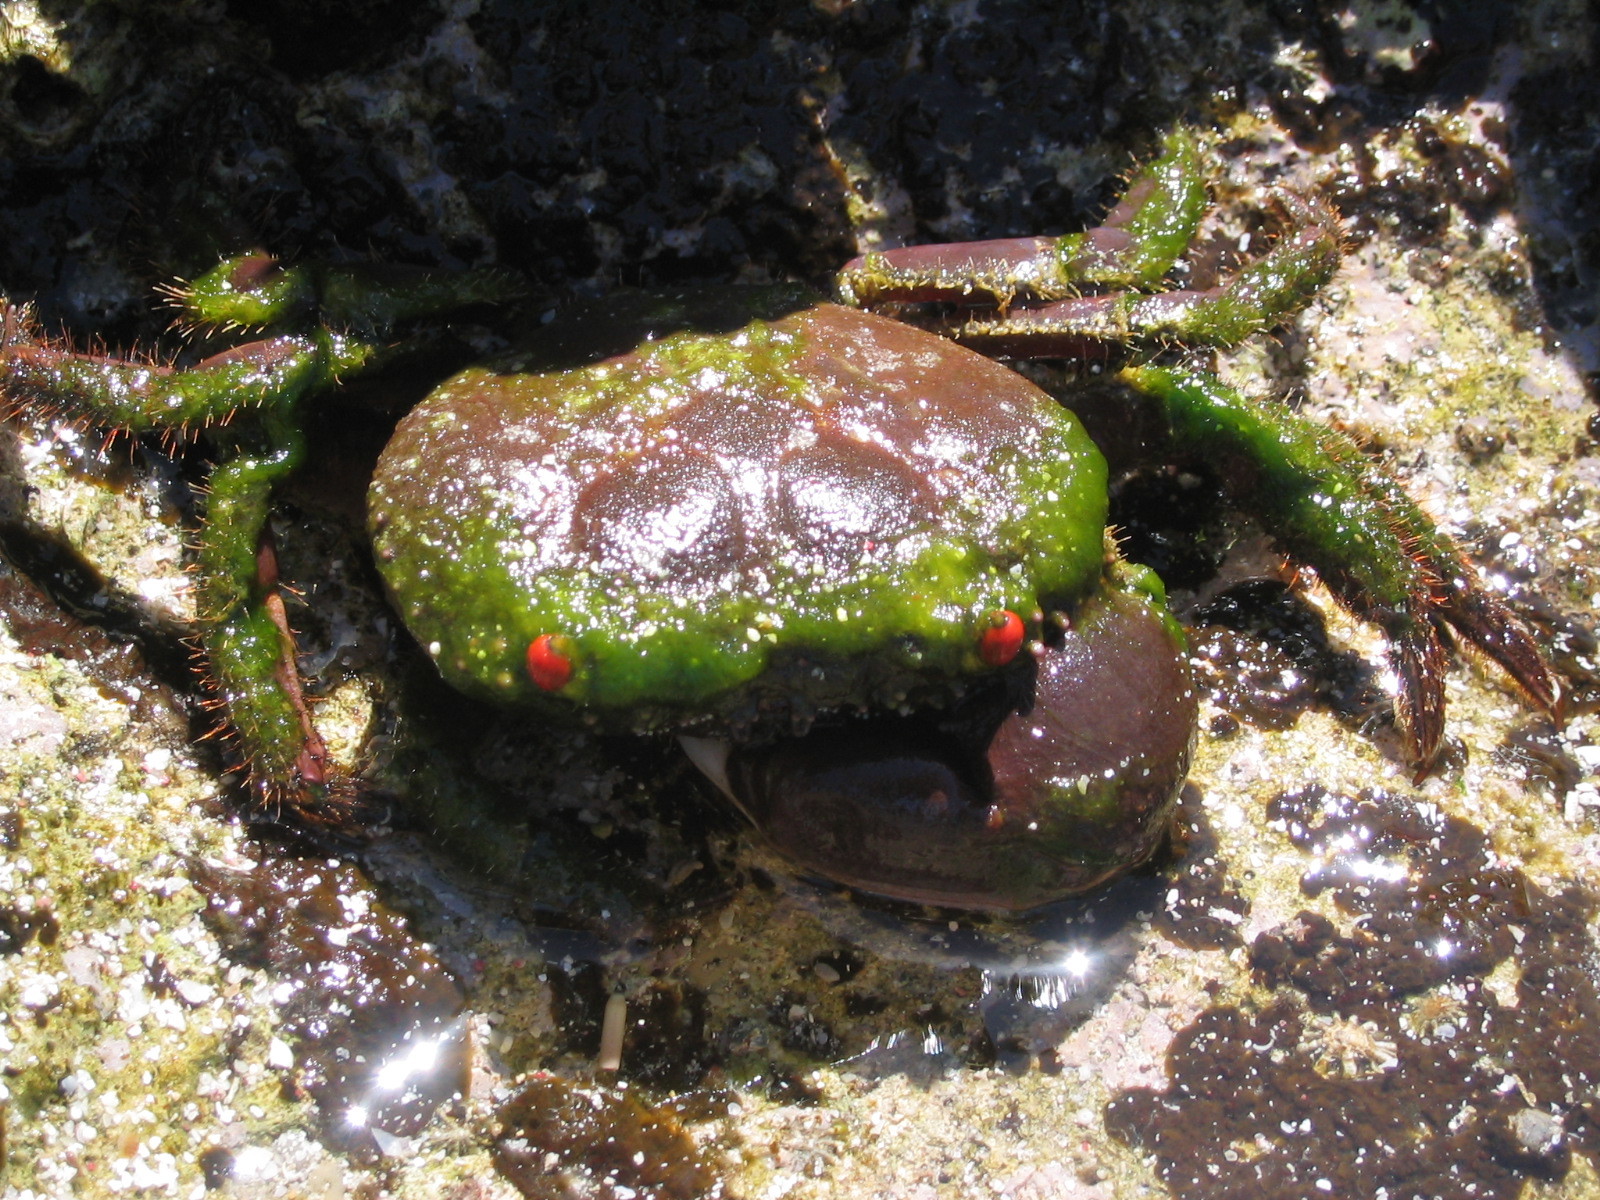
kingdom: Animalia
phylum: Arthropoda
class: Malacostraca
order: Decapoda
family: Eriphiidae
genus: Eriphia
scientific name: Eriphia sebana
